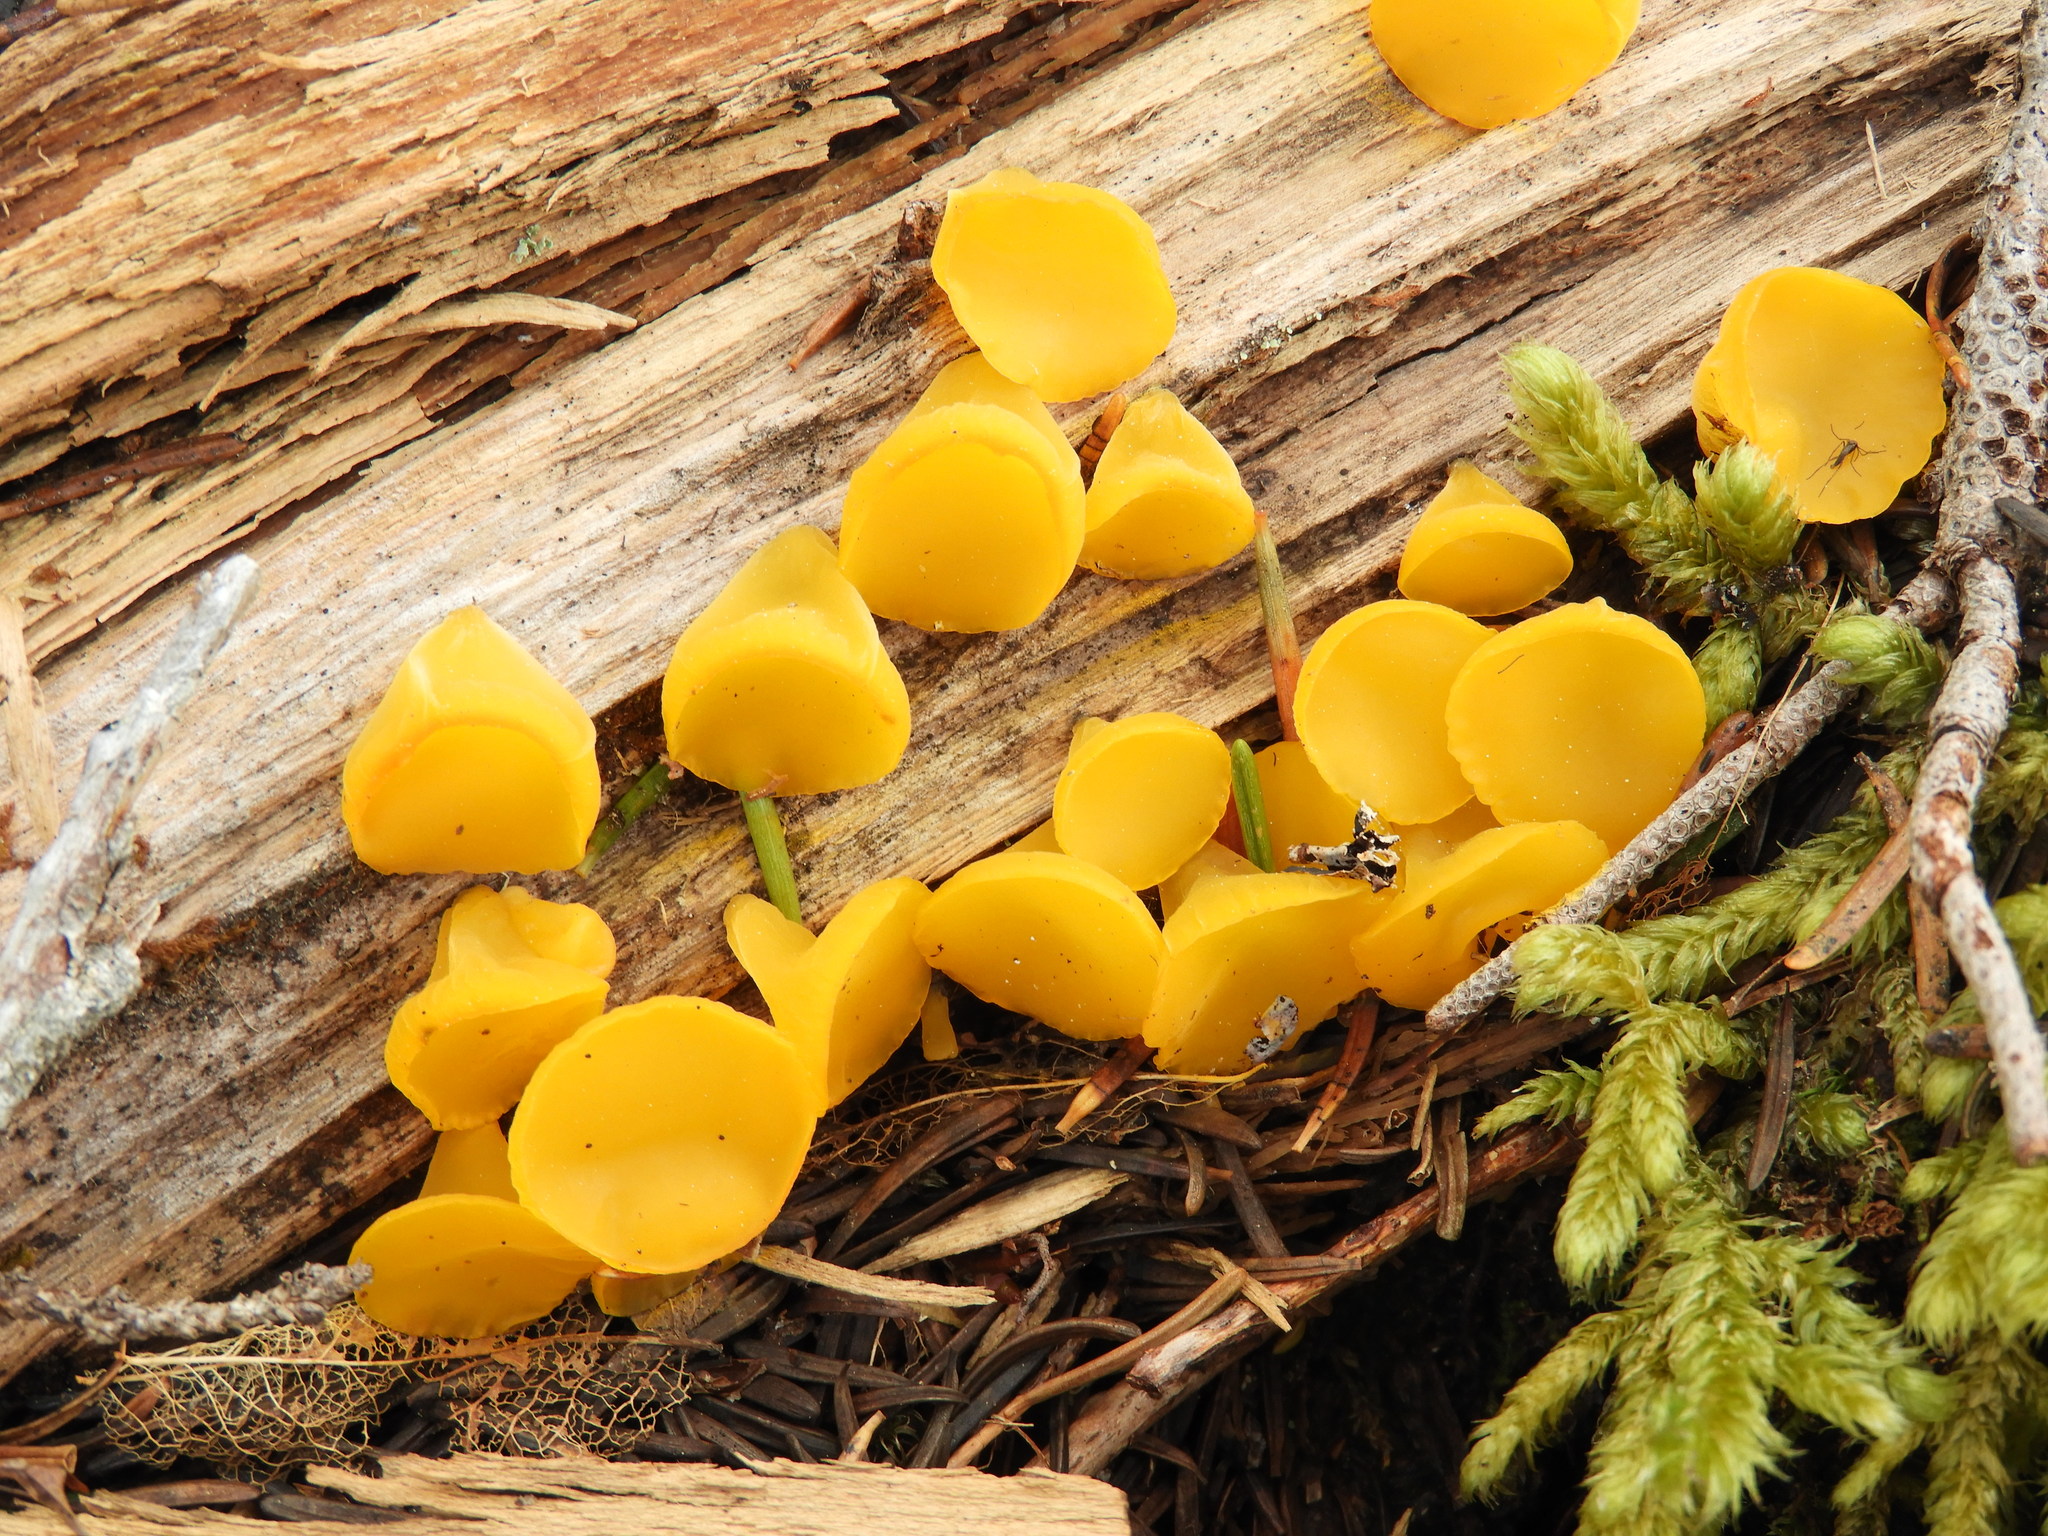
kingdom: Fungi
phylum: Basidiomycota
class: Dacrymycetes
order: Dacrymycetales
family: Dacrymycetaceae
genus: Guepiniopsis
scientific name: Guepiniopsis alpina
